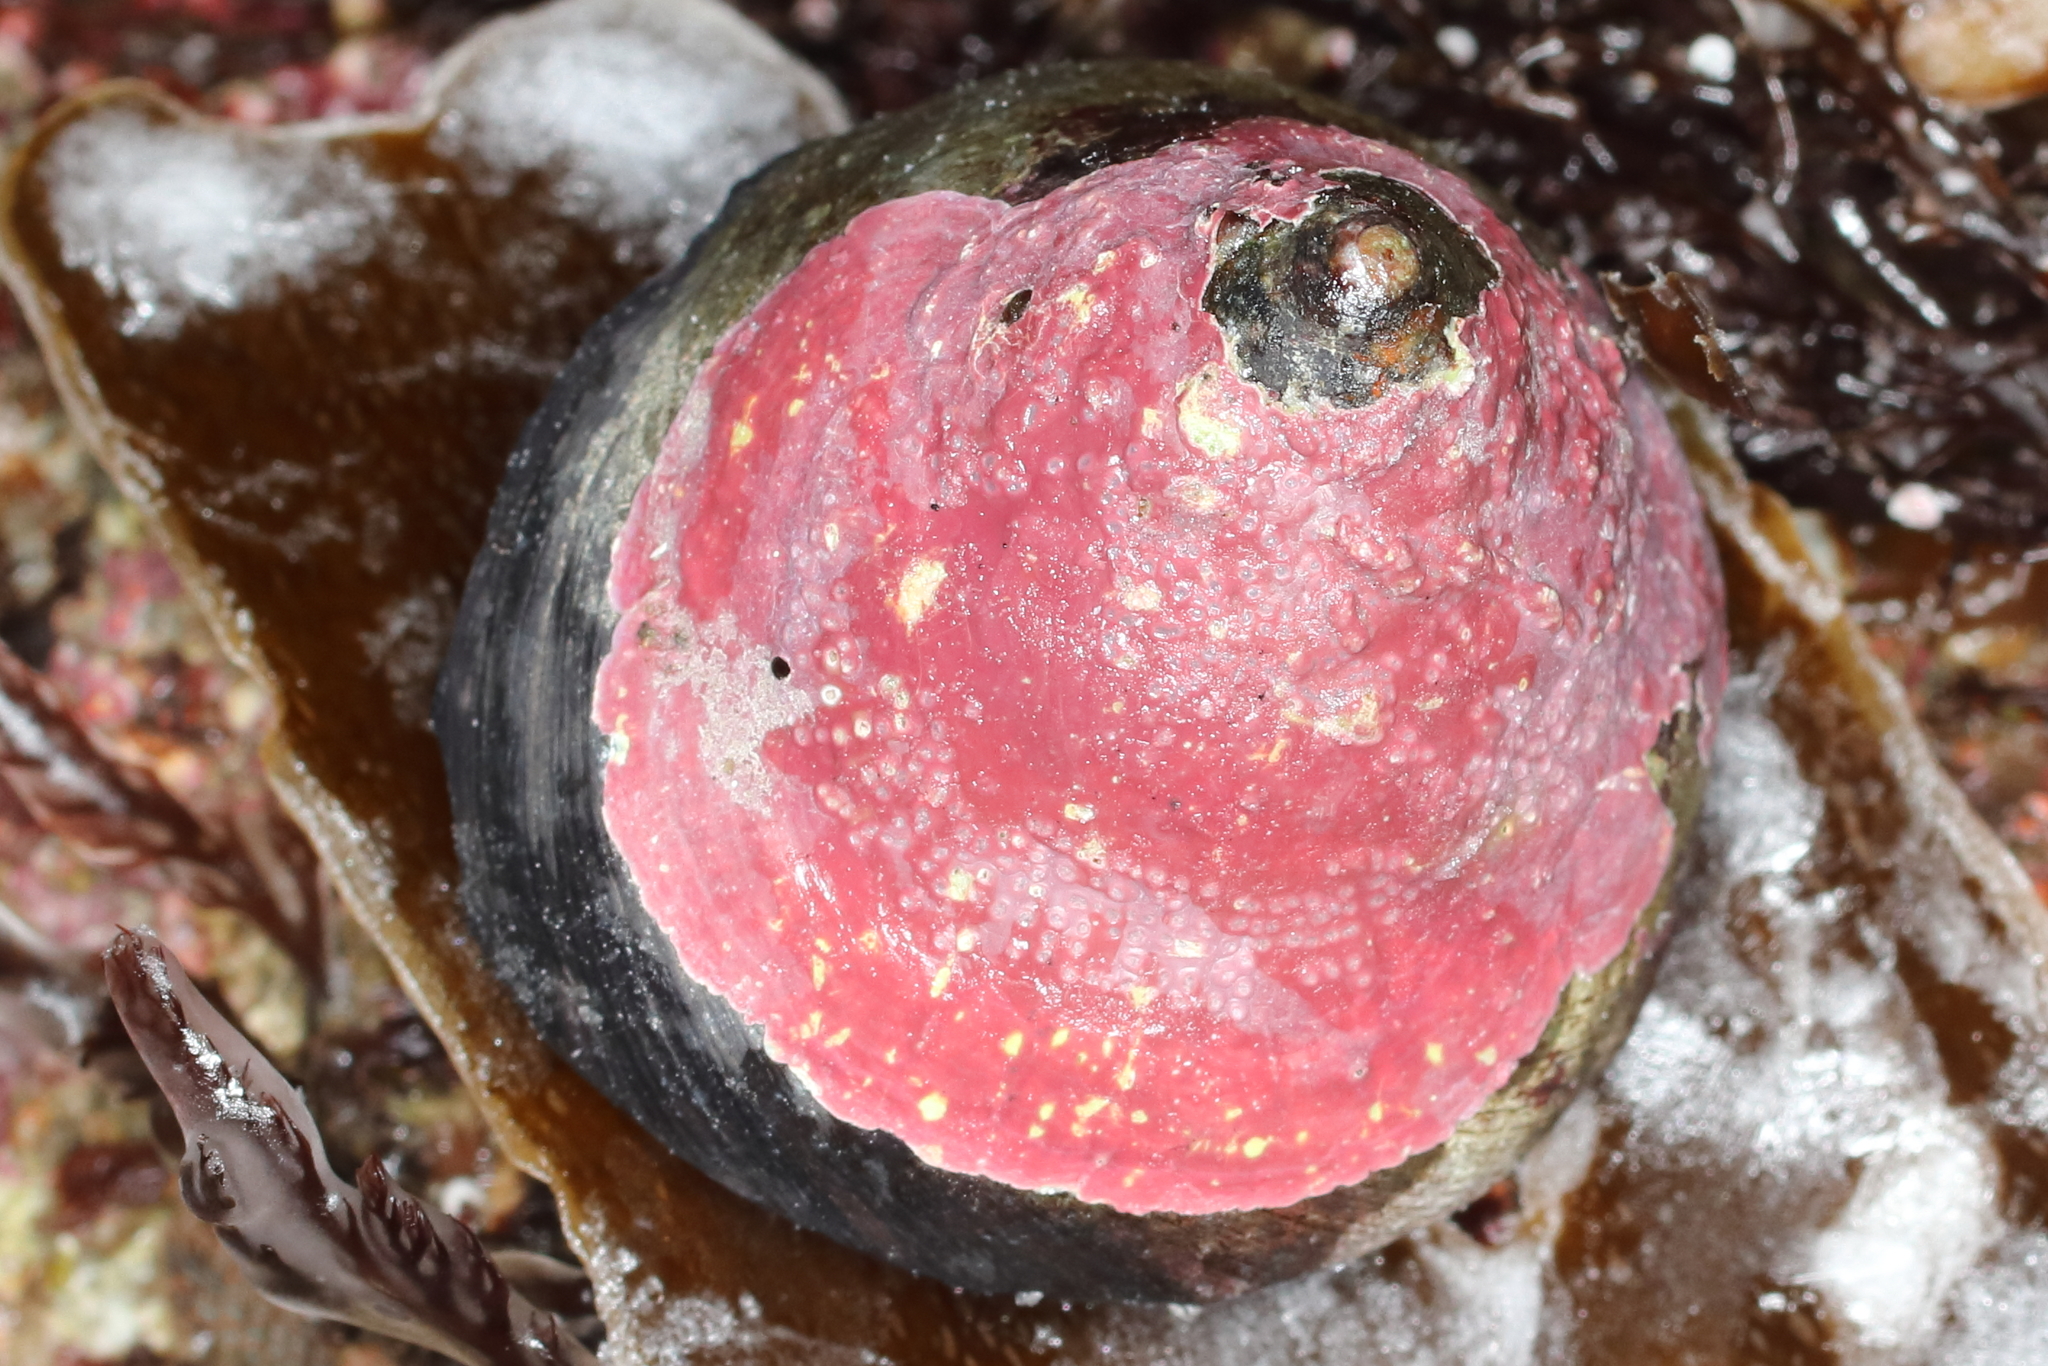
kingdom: Animalia
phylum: Mollusca
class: Gastropoda
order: Trochida
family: Tegulidae
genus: Tegula
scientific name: Tegula pulligo
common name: Brown turban
